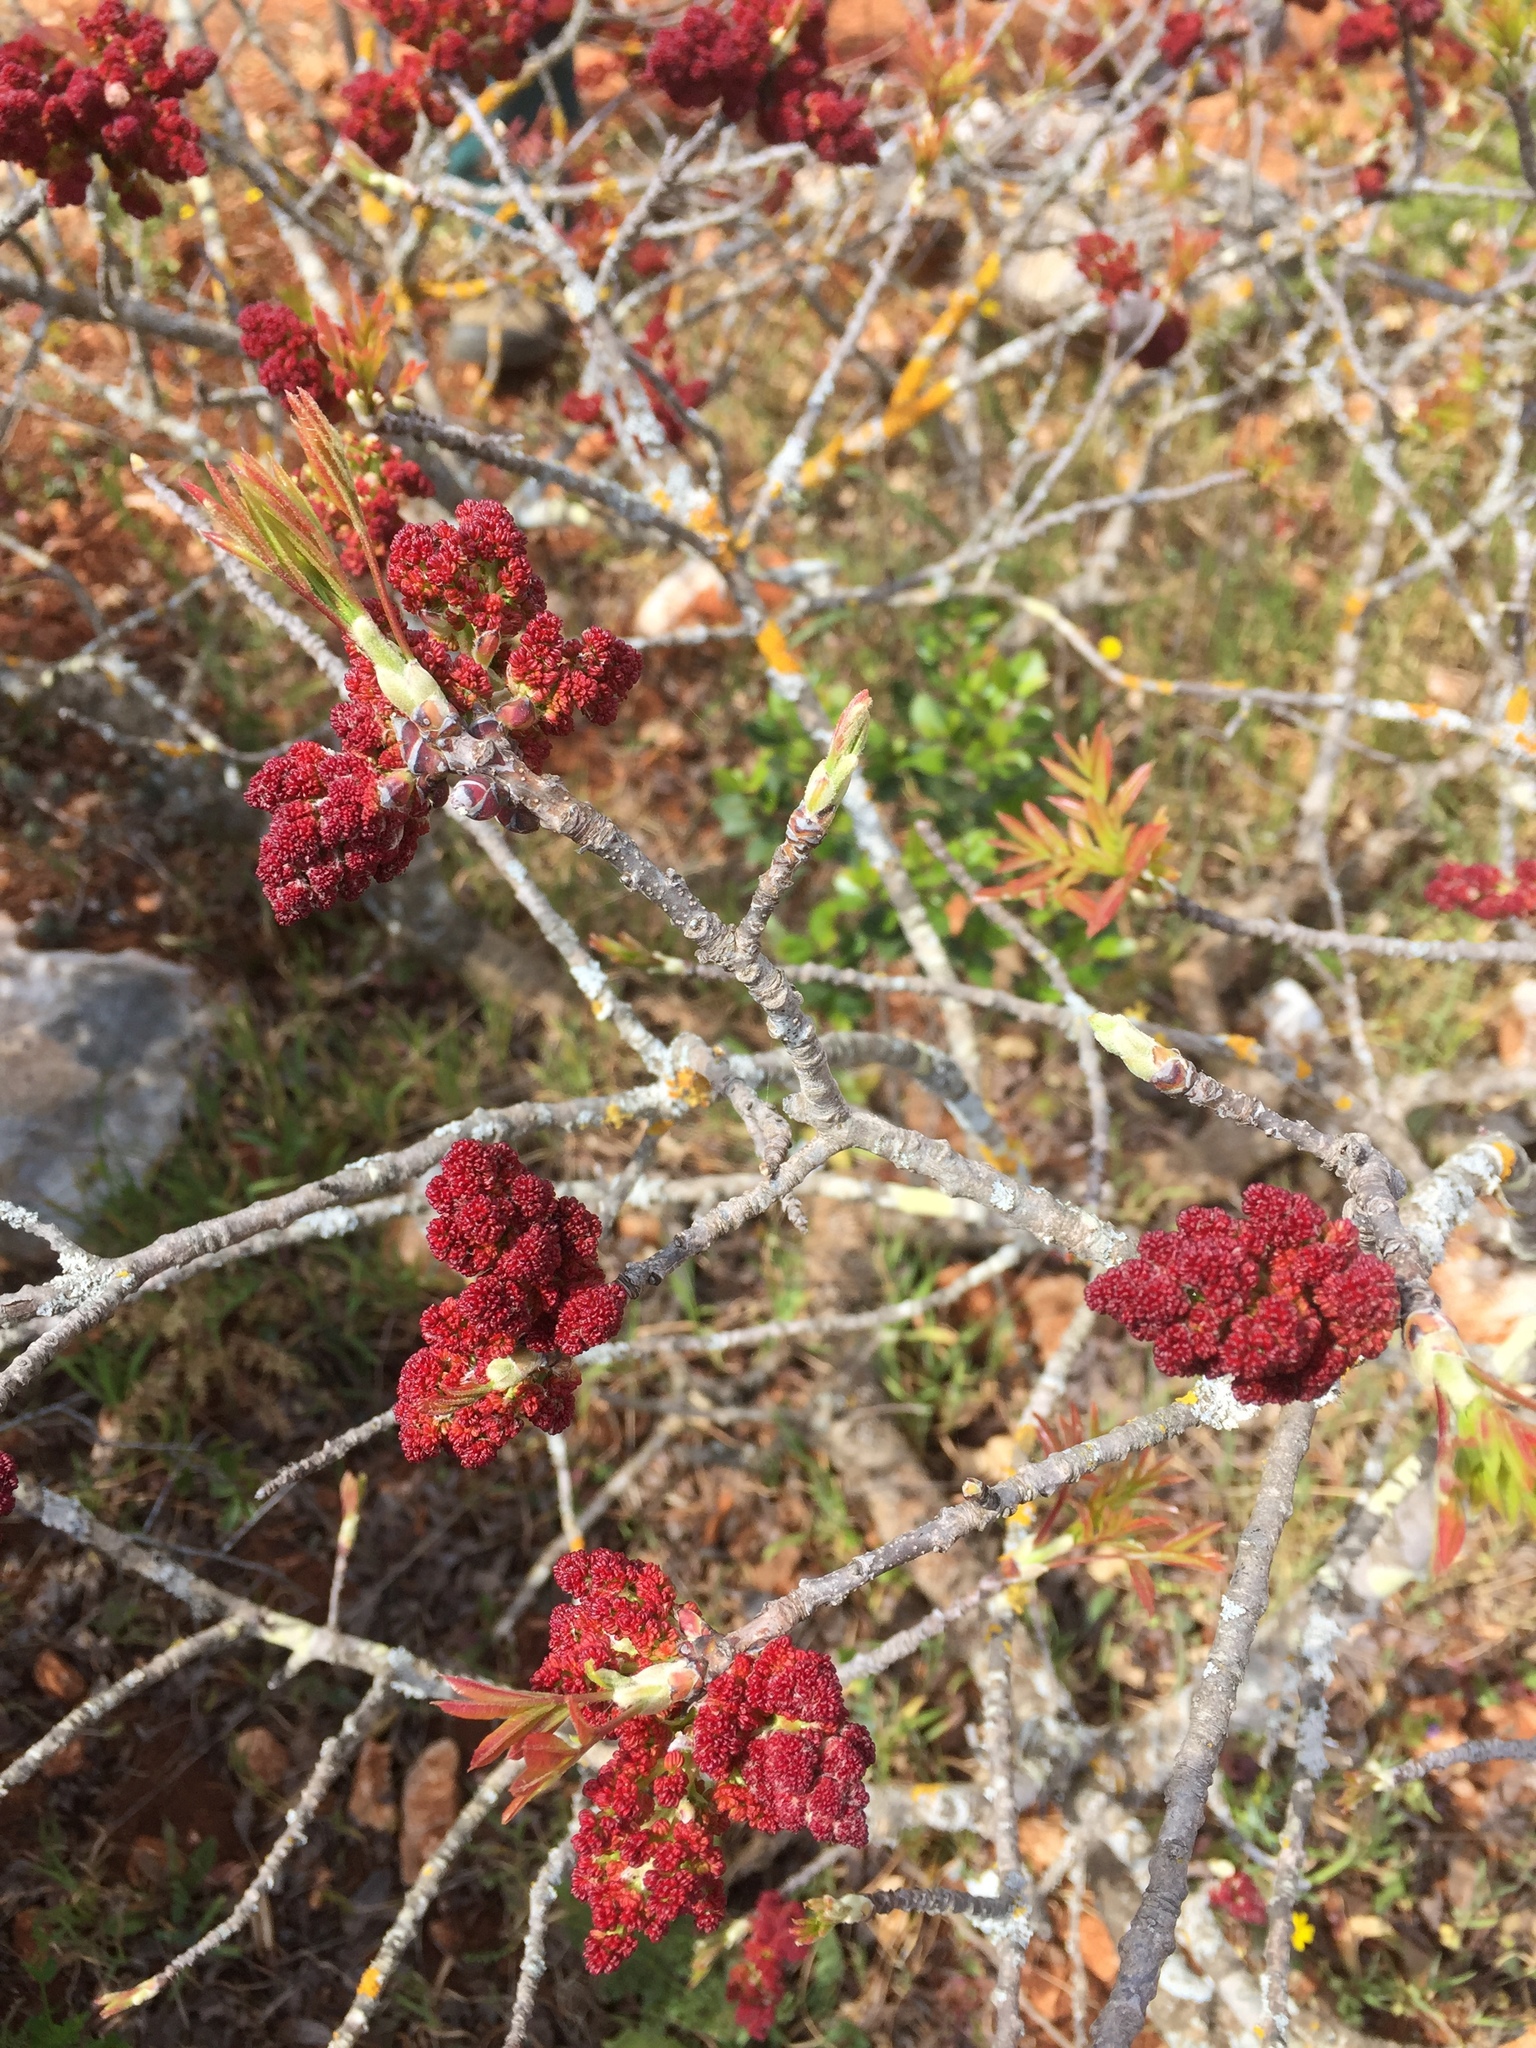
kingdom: Plantae
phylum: Tracheophyta
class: Magnoliopsida
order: Sapindales
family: Anacardiaceae
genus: Pistacia
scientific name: Pistacia terebinthus
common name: Terebinth
